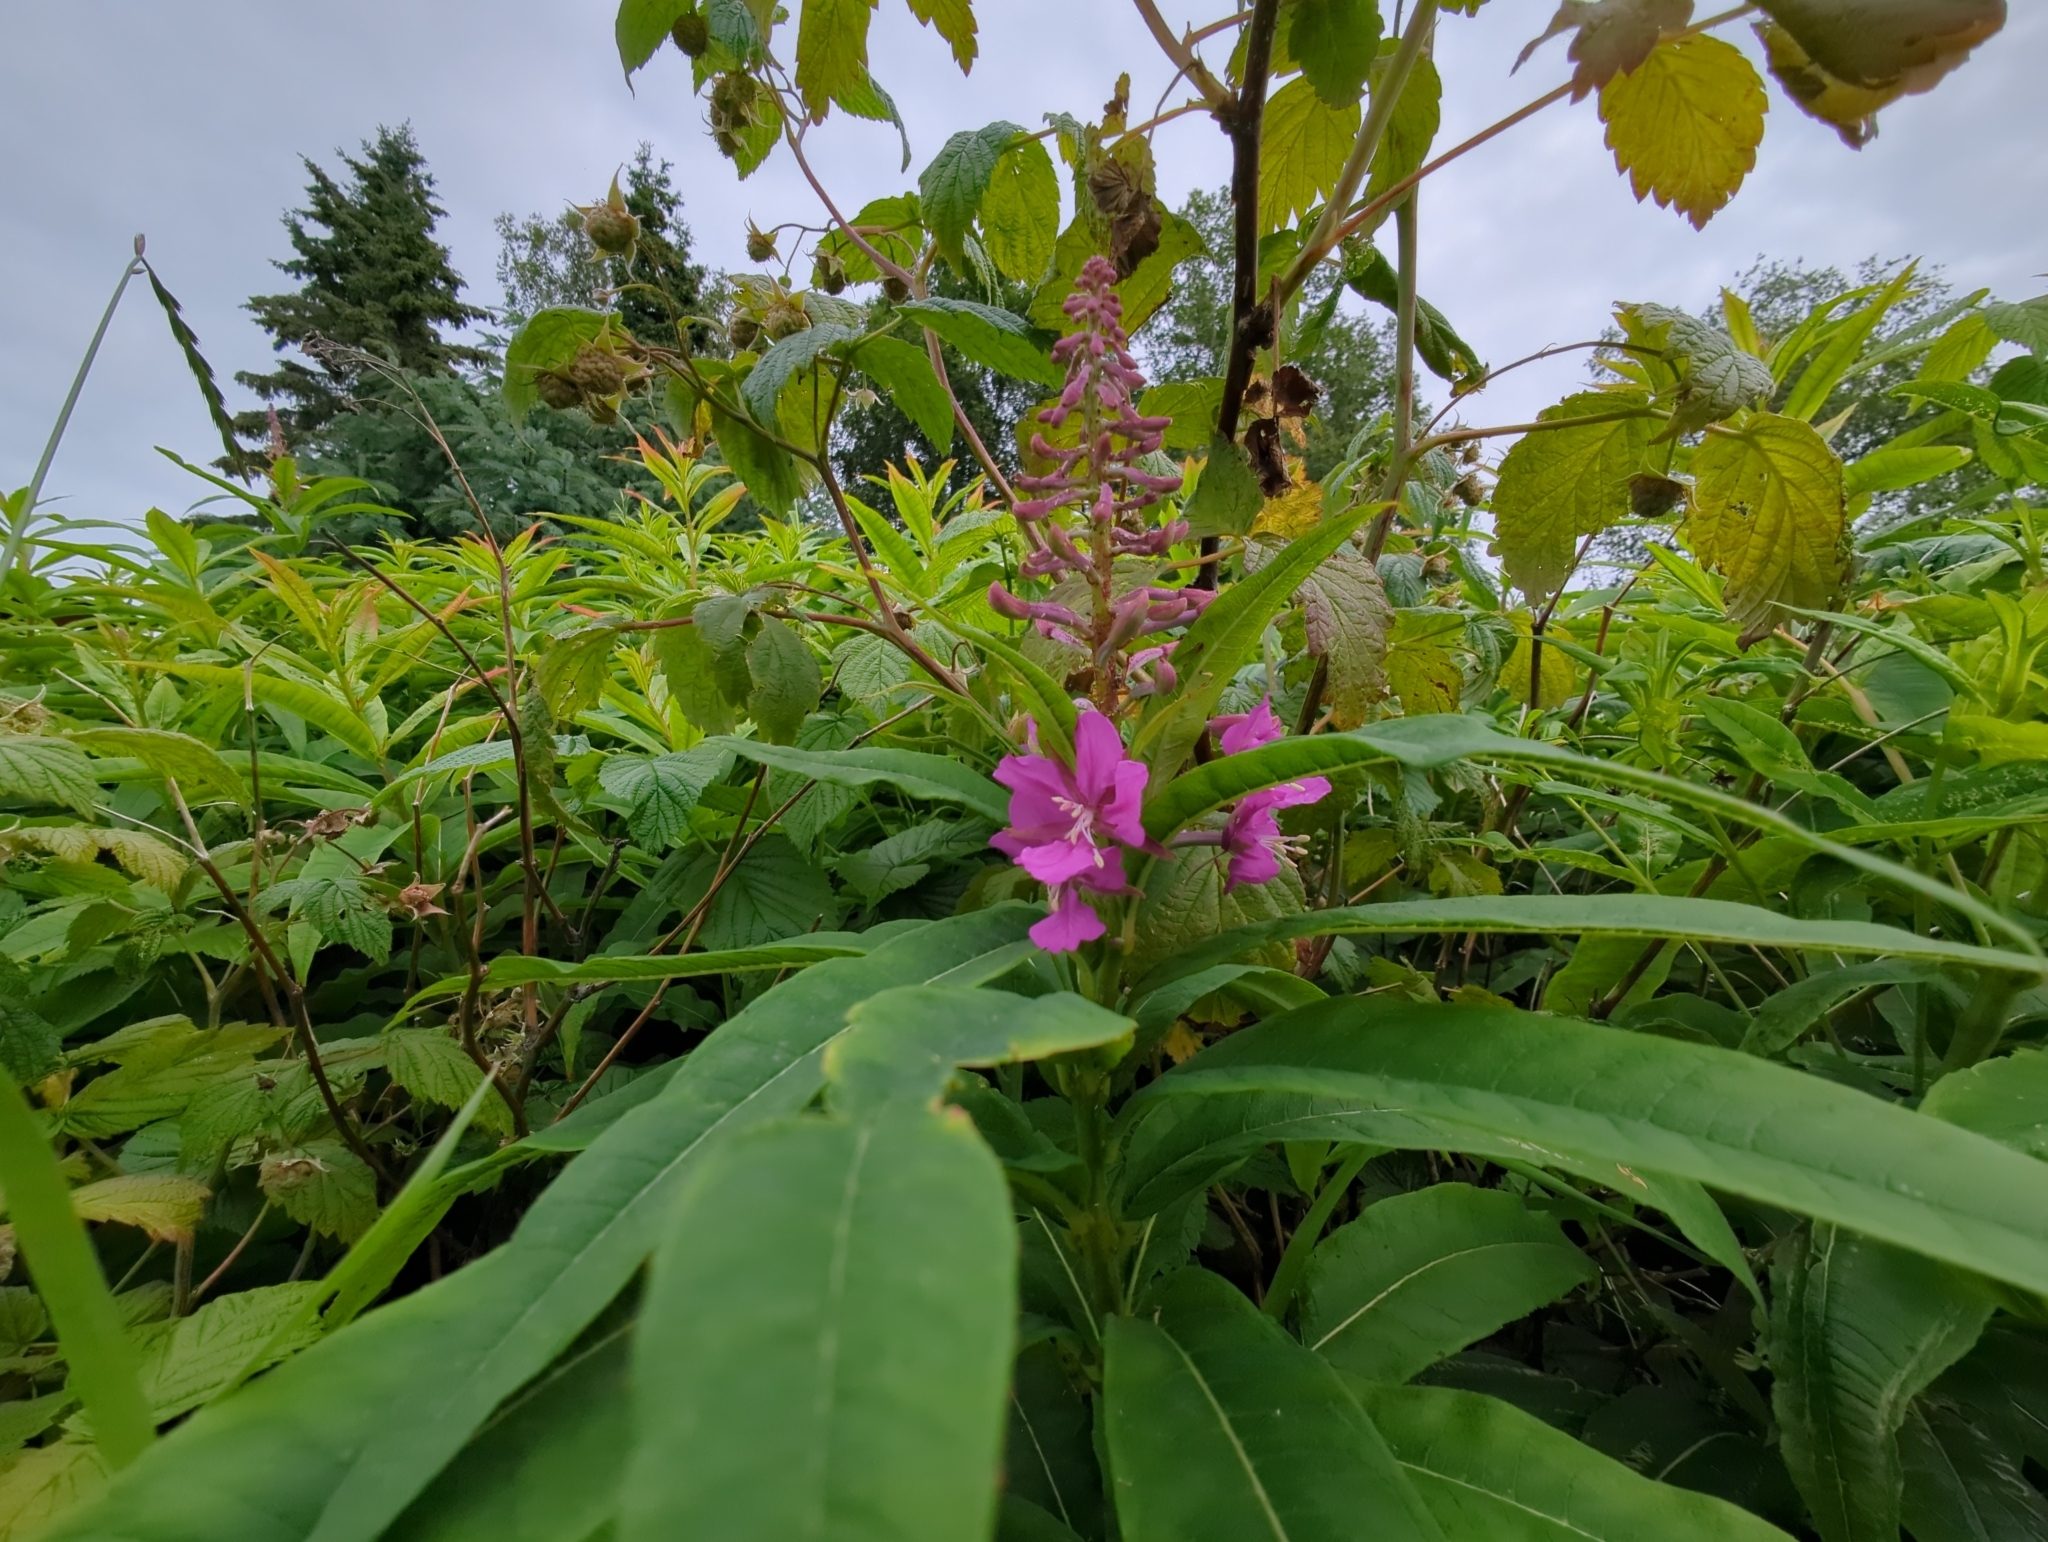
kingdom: Plantae
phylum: Tracheophyta
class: Magnoliopsida
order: Myrtales
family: Onagraceae
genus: Chamaenerion
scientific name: Chamaenerion angustifolium
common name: Fireweed
